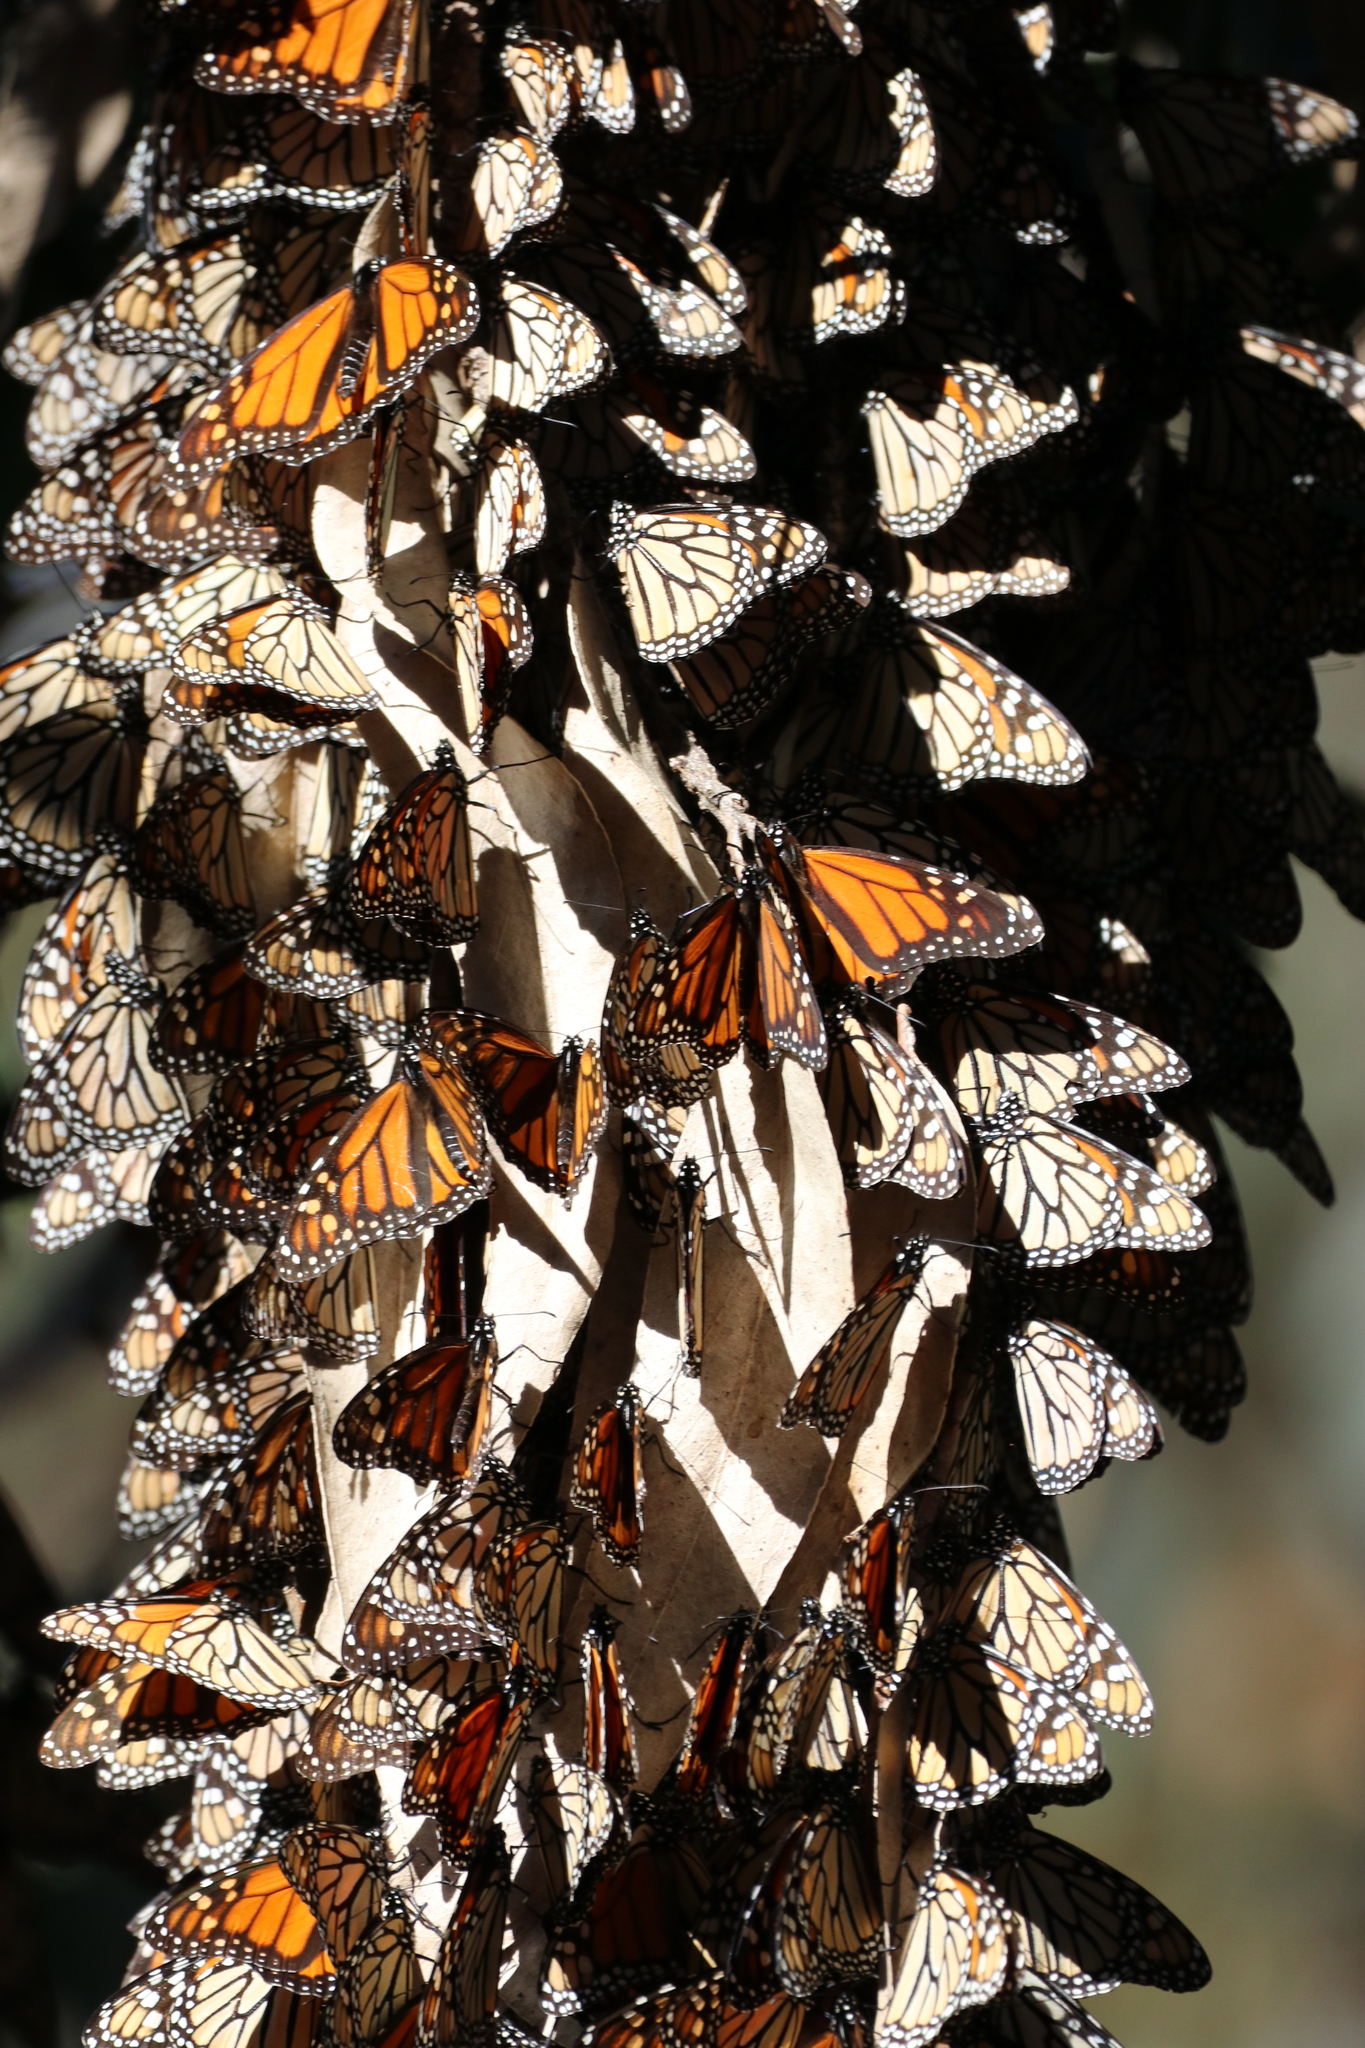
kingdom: Animalia
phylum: Arthropoda
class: Insecta
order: Lepidoptera
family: Nymphalidae
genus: Danaus
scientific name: Danaus plexippus
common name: Monarch
